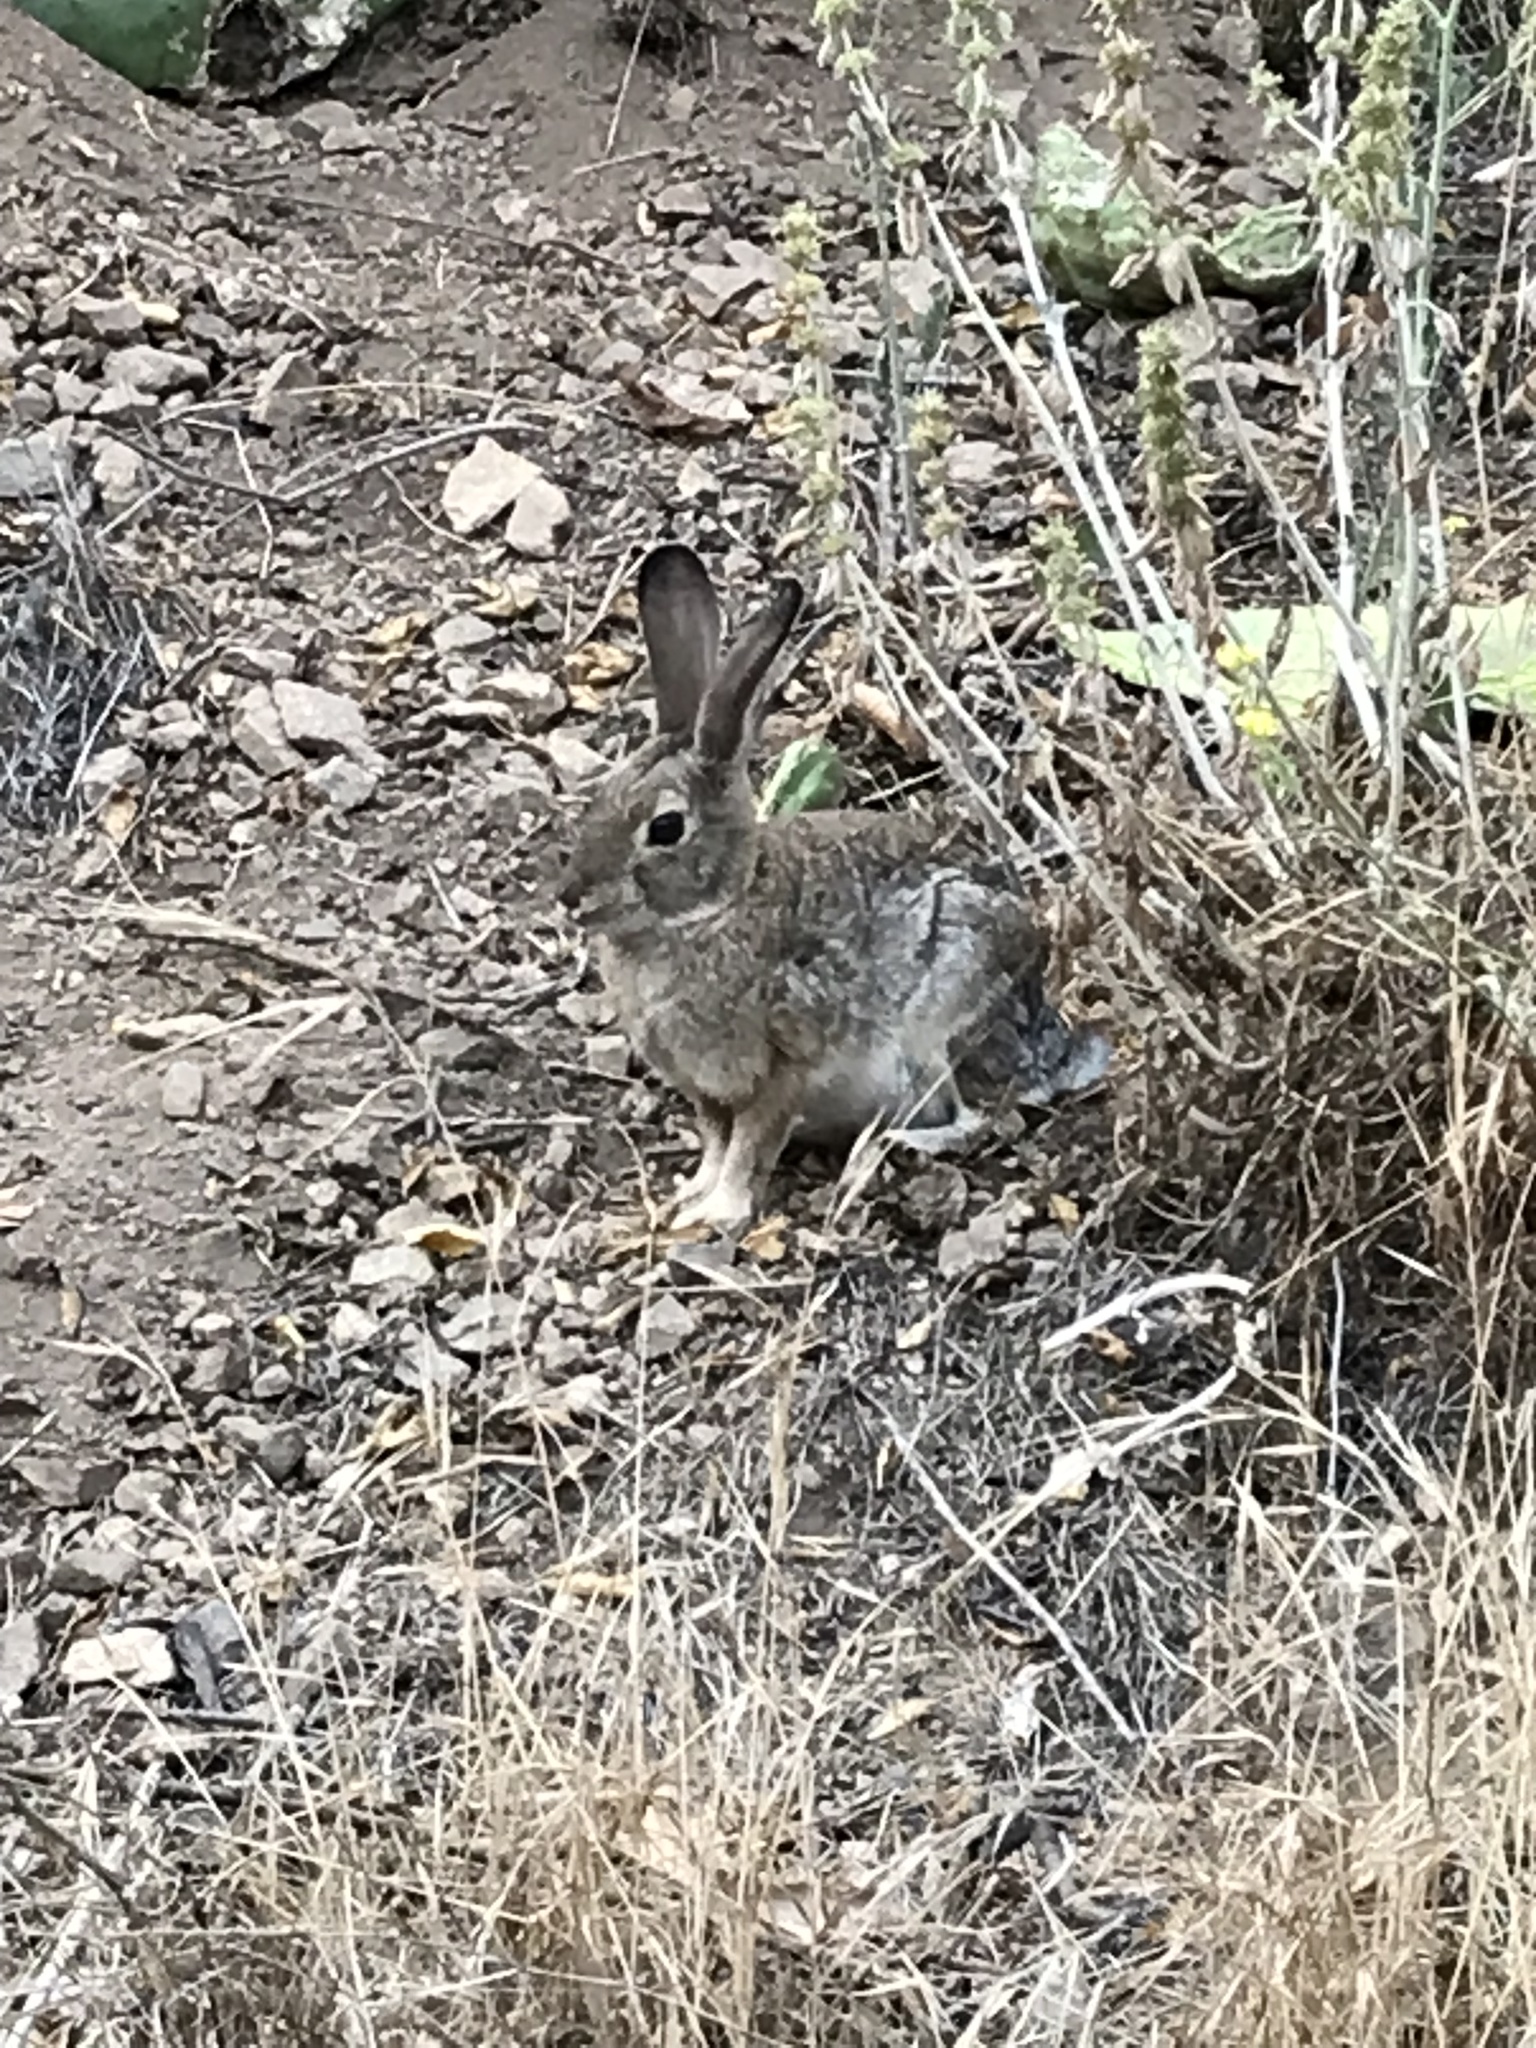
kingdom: Animalia
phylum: Chordata
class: Mammalia
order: Lagomorpha
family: Leporidae
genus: Sylvilagus
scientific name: Sylvilagus audubonii
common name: Desert cottontail
